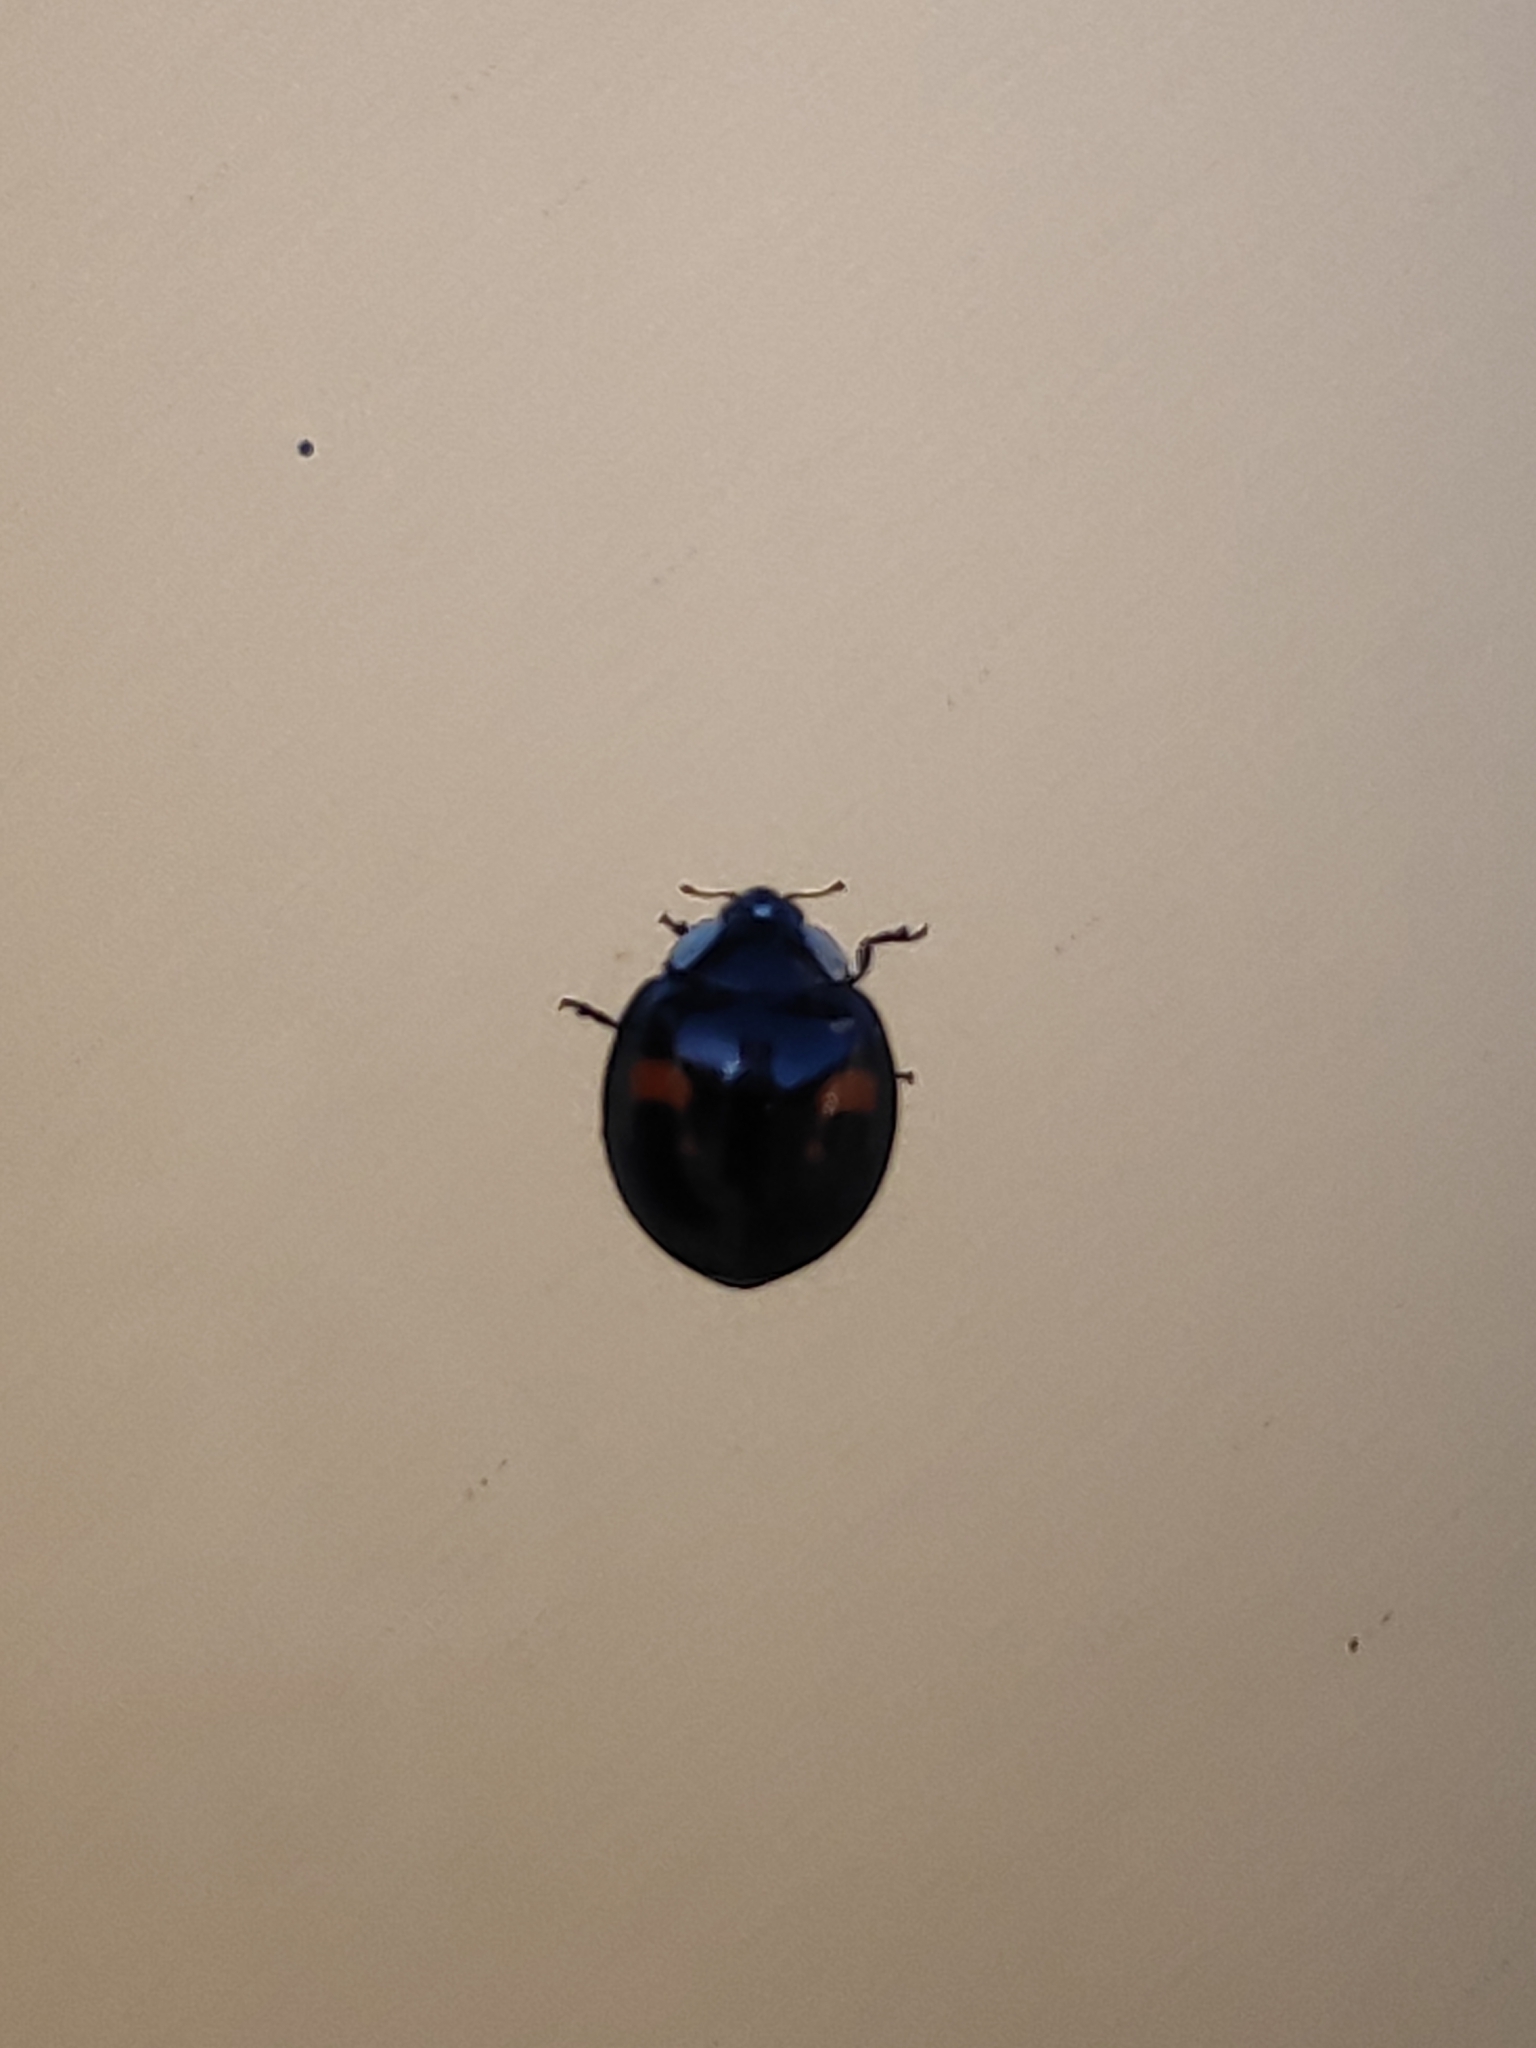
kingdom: Animalia
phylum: Arthropoda
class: Insecta
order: Coleoptera
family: Coccinellidae
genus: Harmonia
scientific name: Harmonia axyridis
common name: Harlequin ladybird
